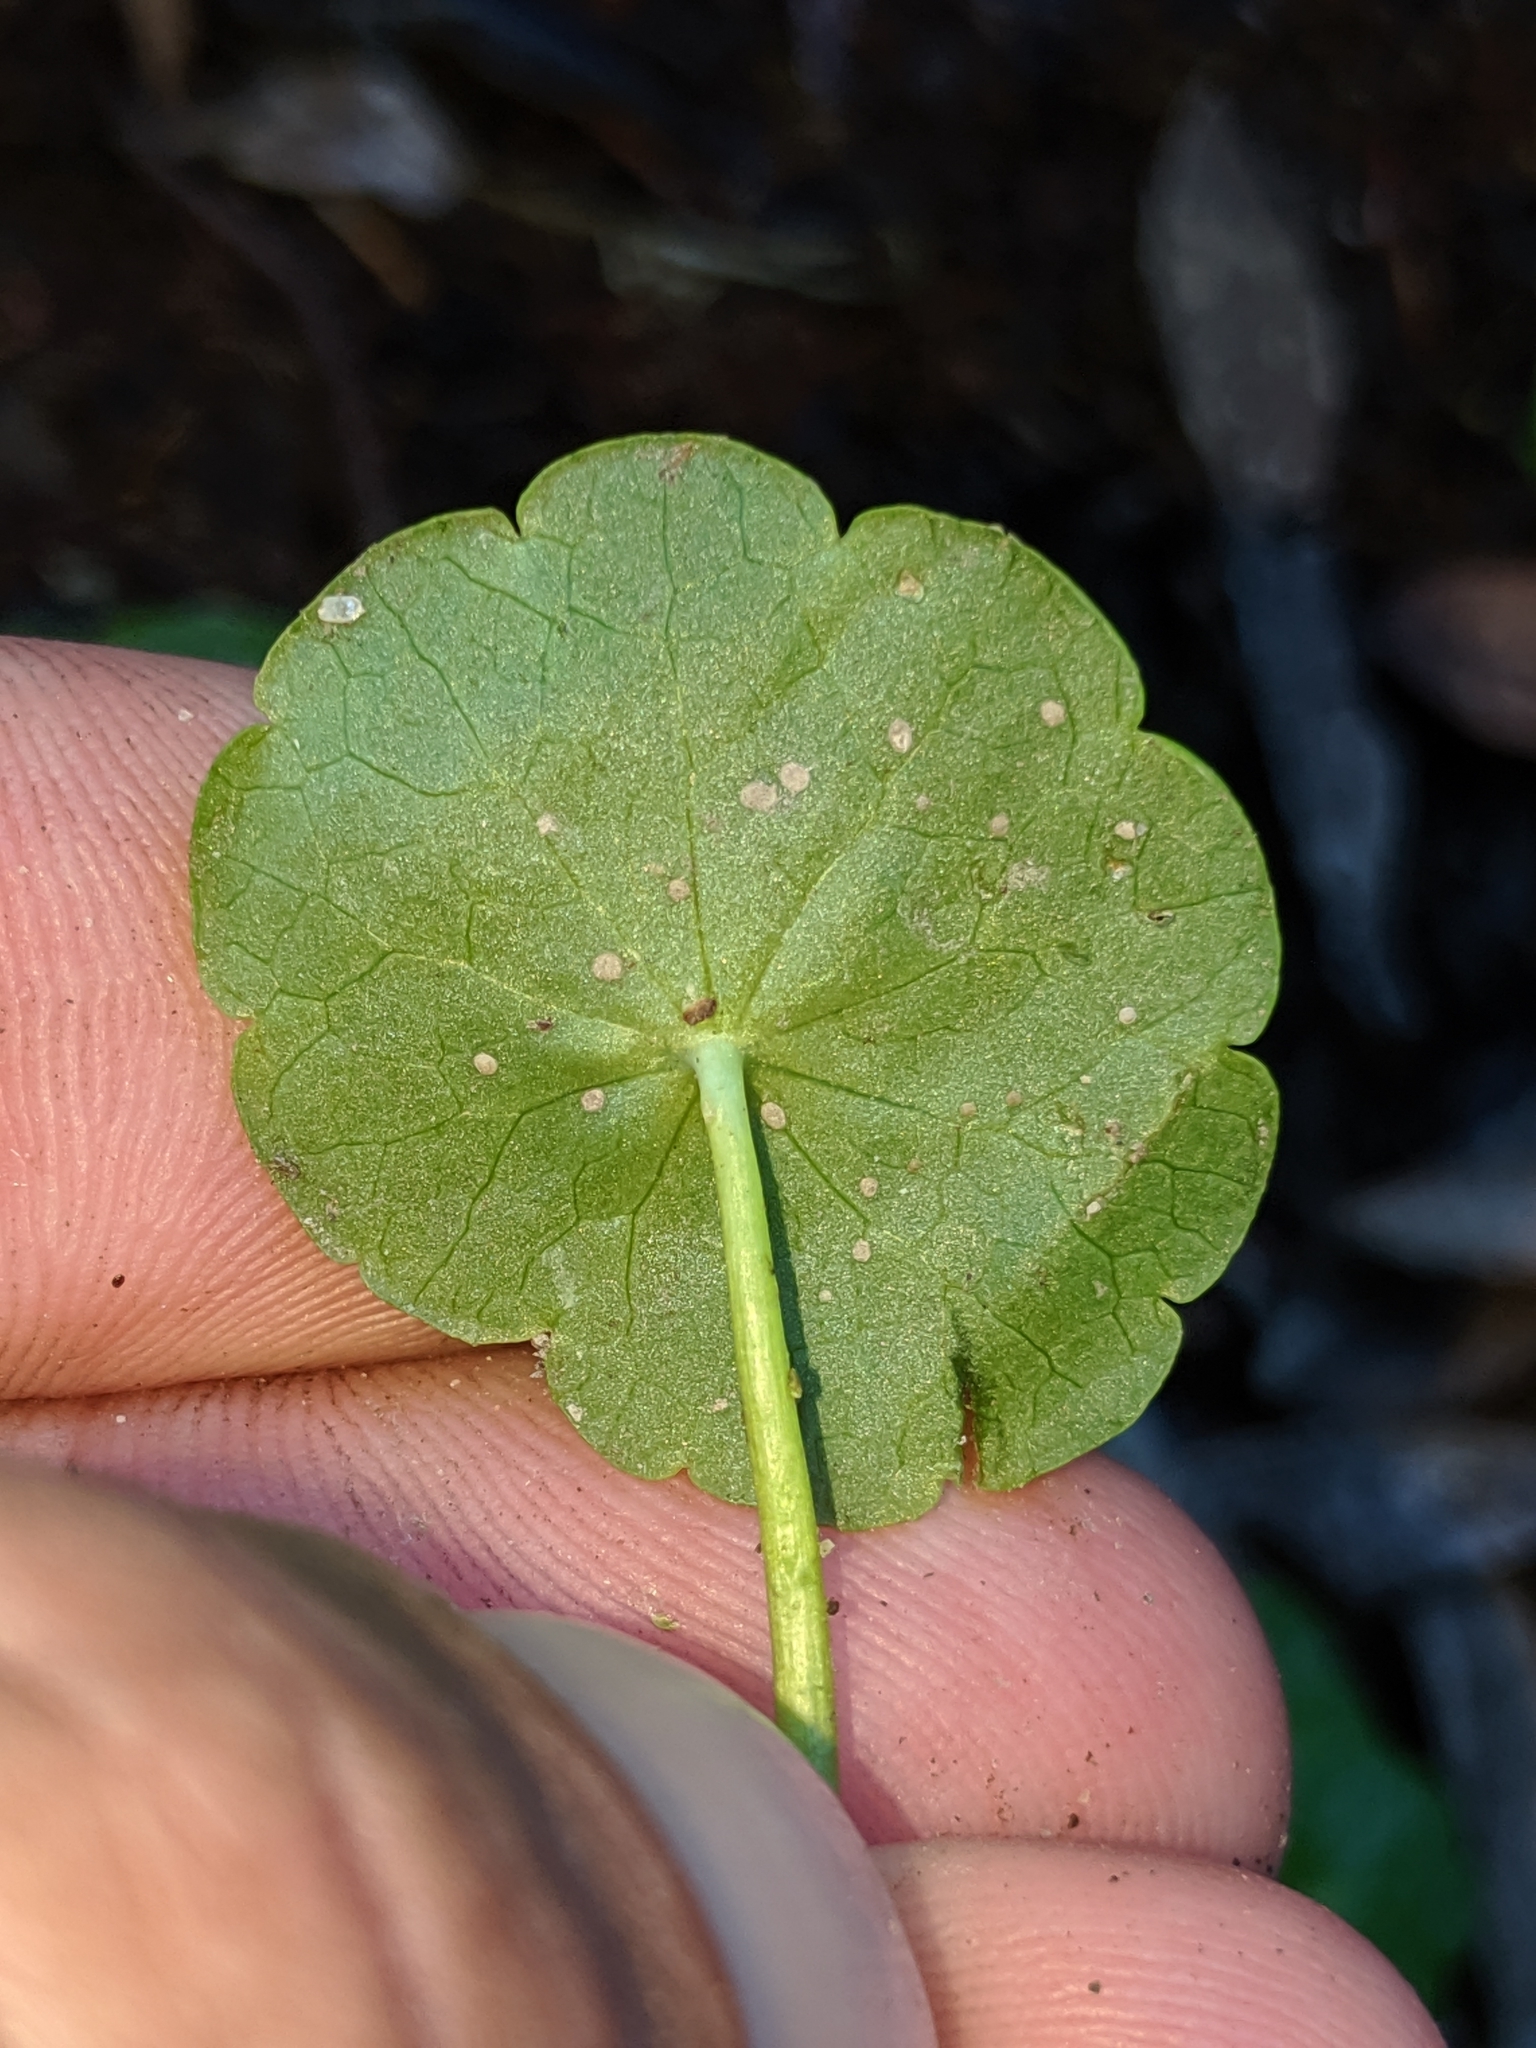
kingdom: Plantae
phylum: Tracheophyta
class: Magnoliopsida
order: Apiales
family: Araliaceae
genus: Hydrocotyle
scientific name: Hydrocotyle verticillata
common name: Whorled marshpennywort
